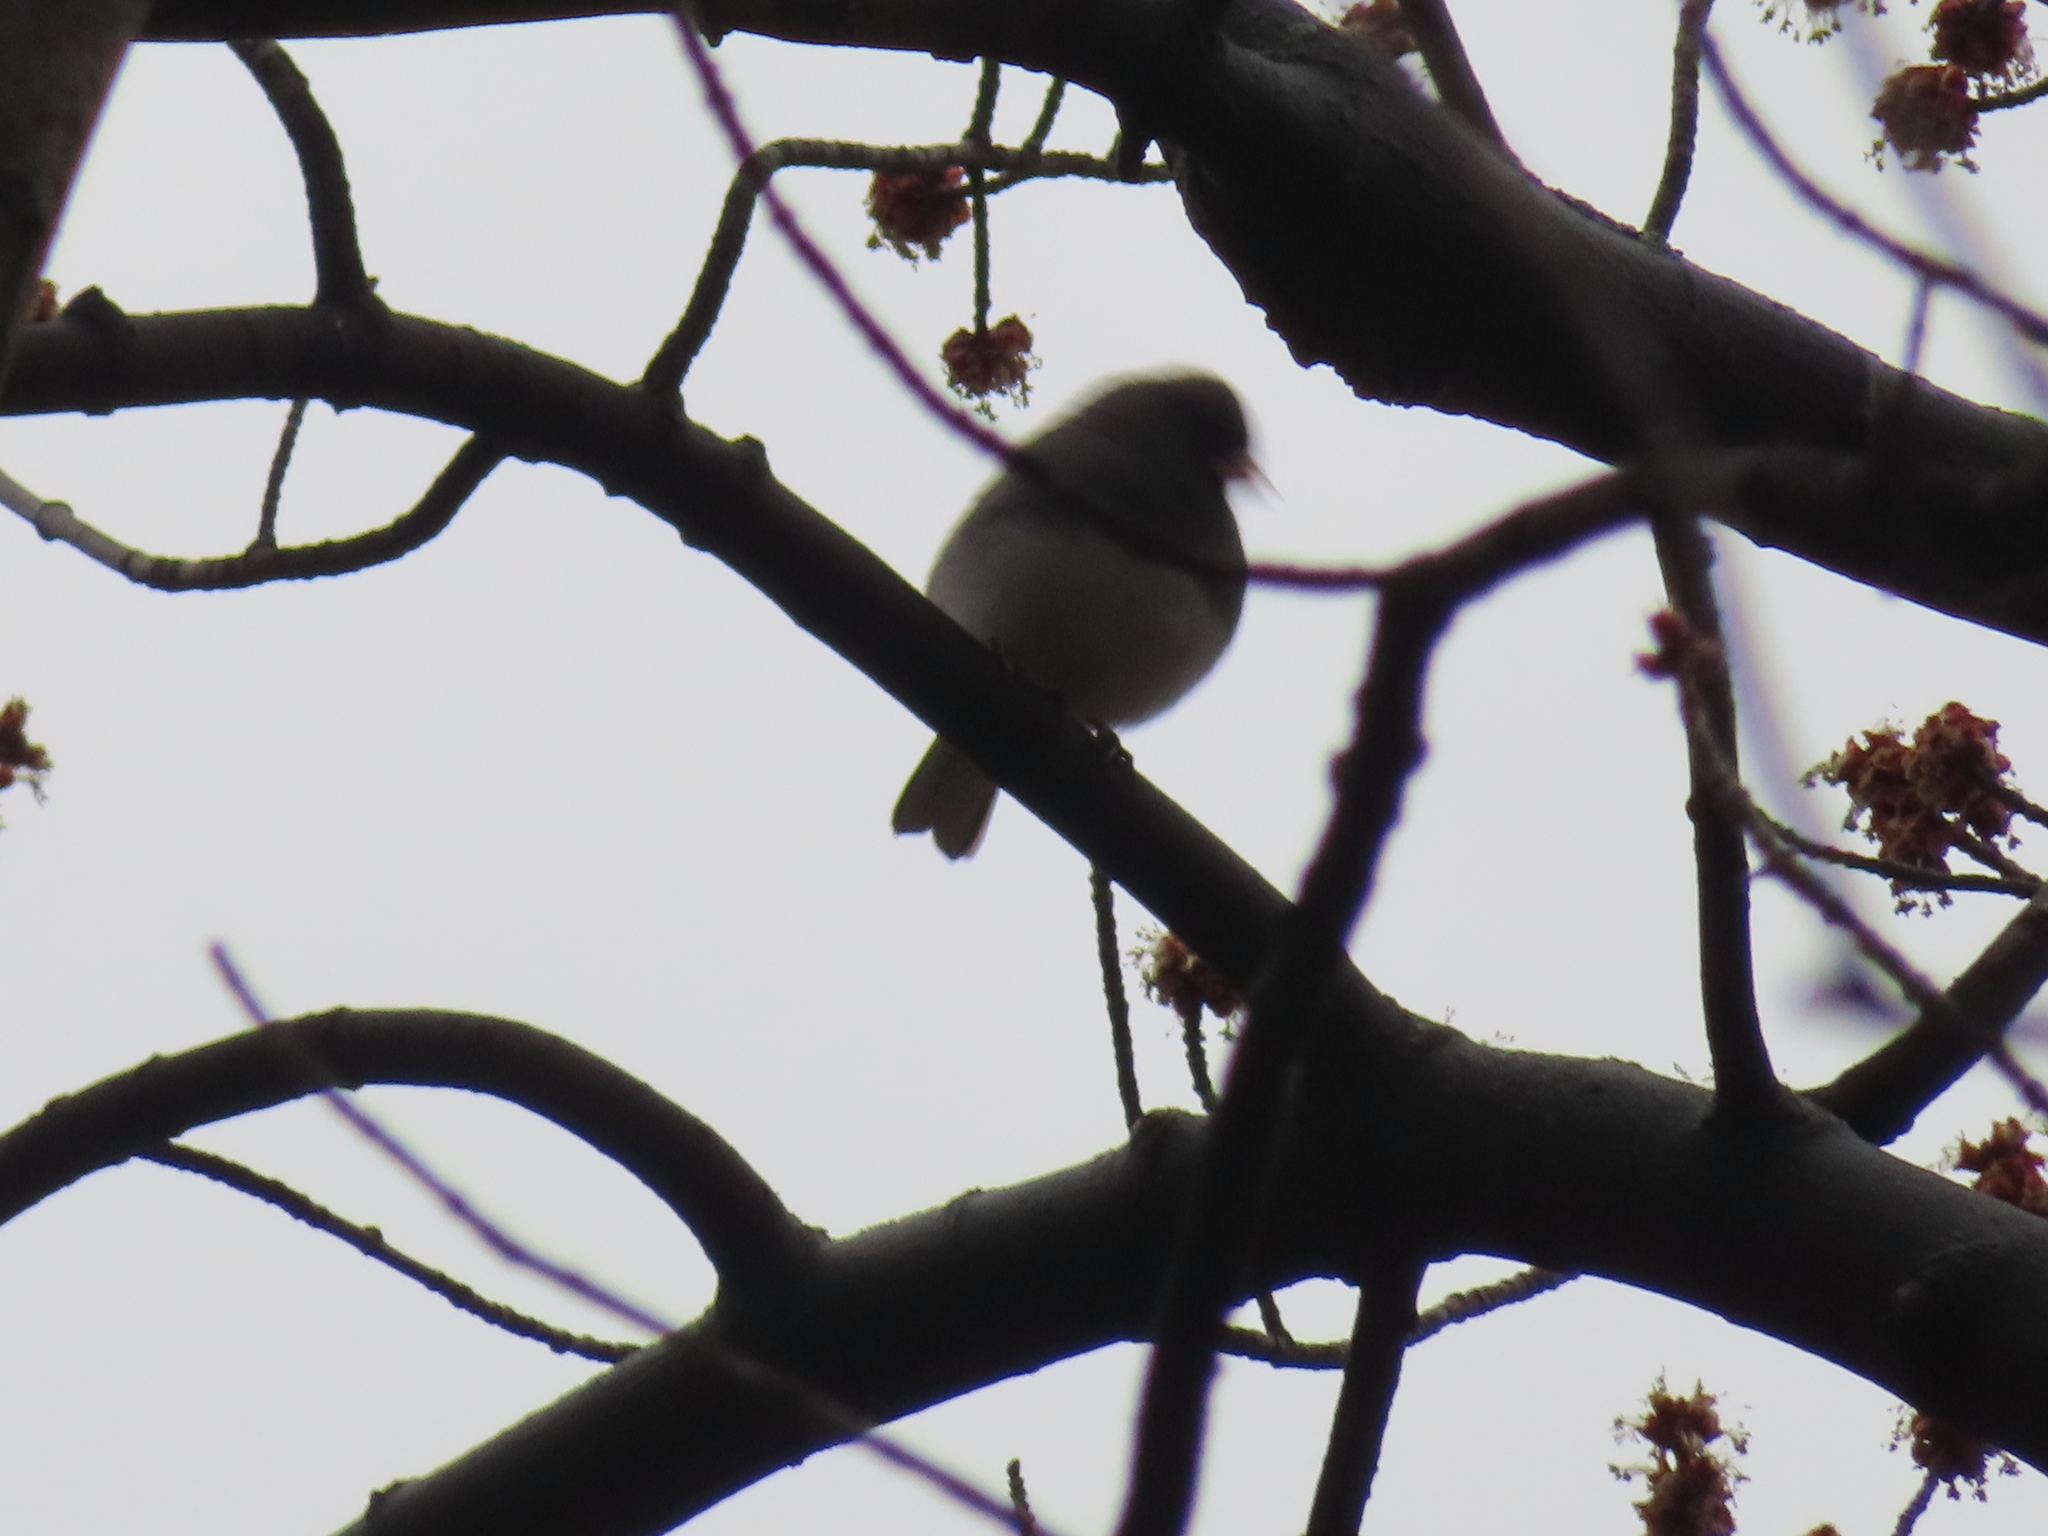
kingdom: Animalia
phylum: Chordata
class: Aves
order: Passeriformes
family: Passerellidae
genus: Junco
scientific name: Junco hyemalis
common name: Dark-eyed junco
